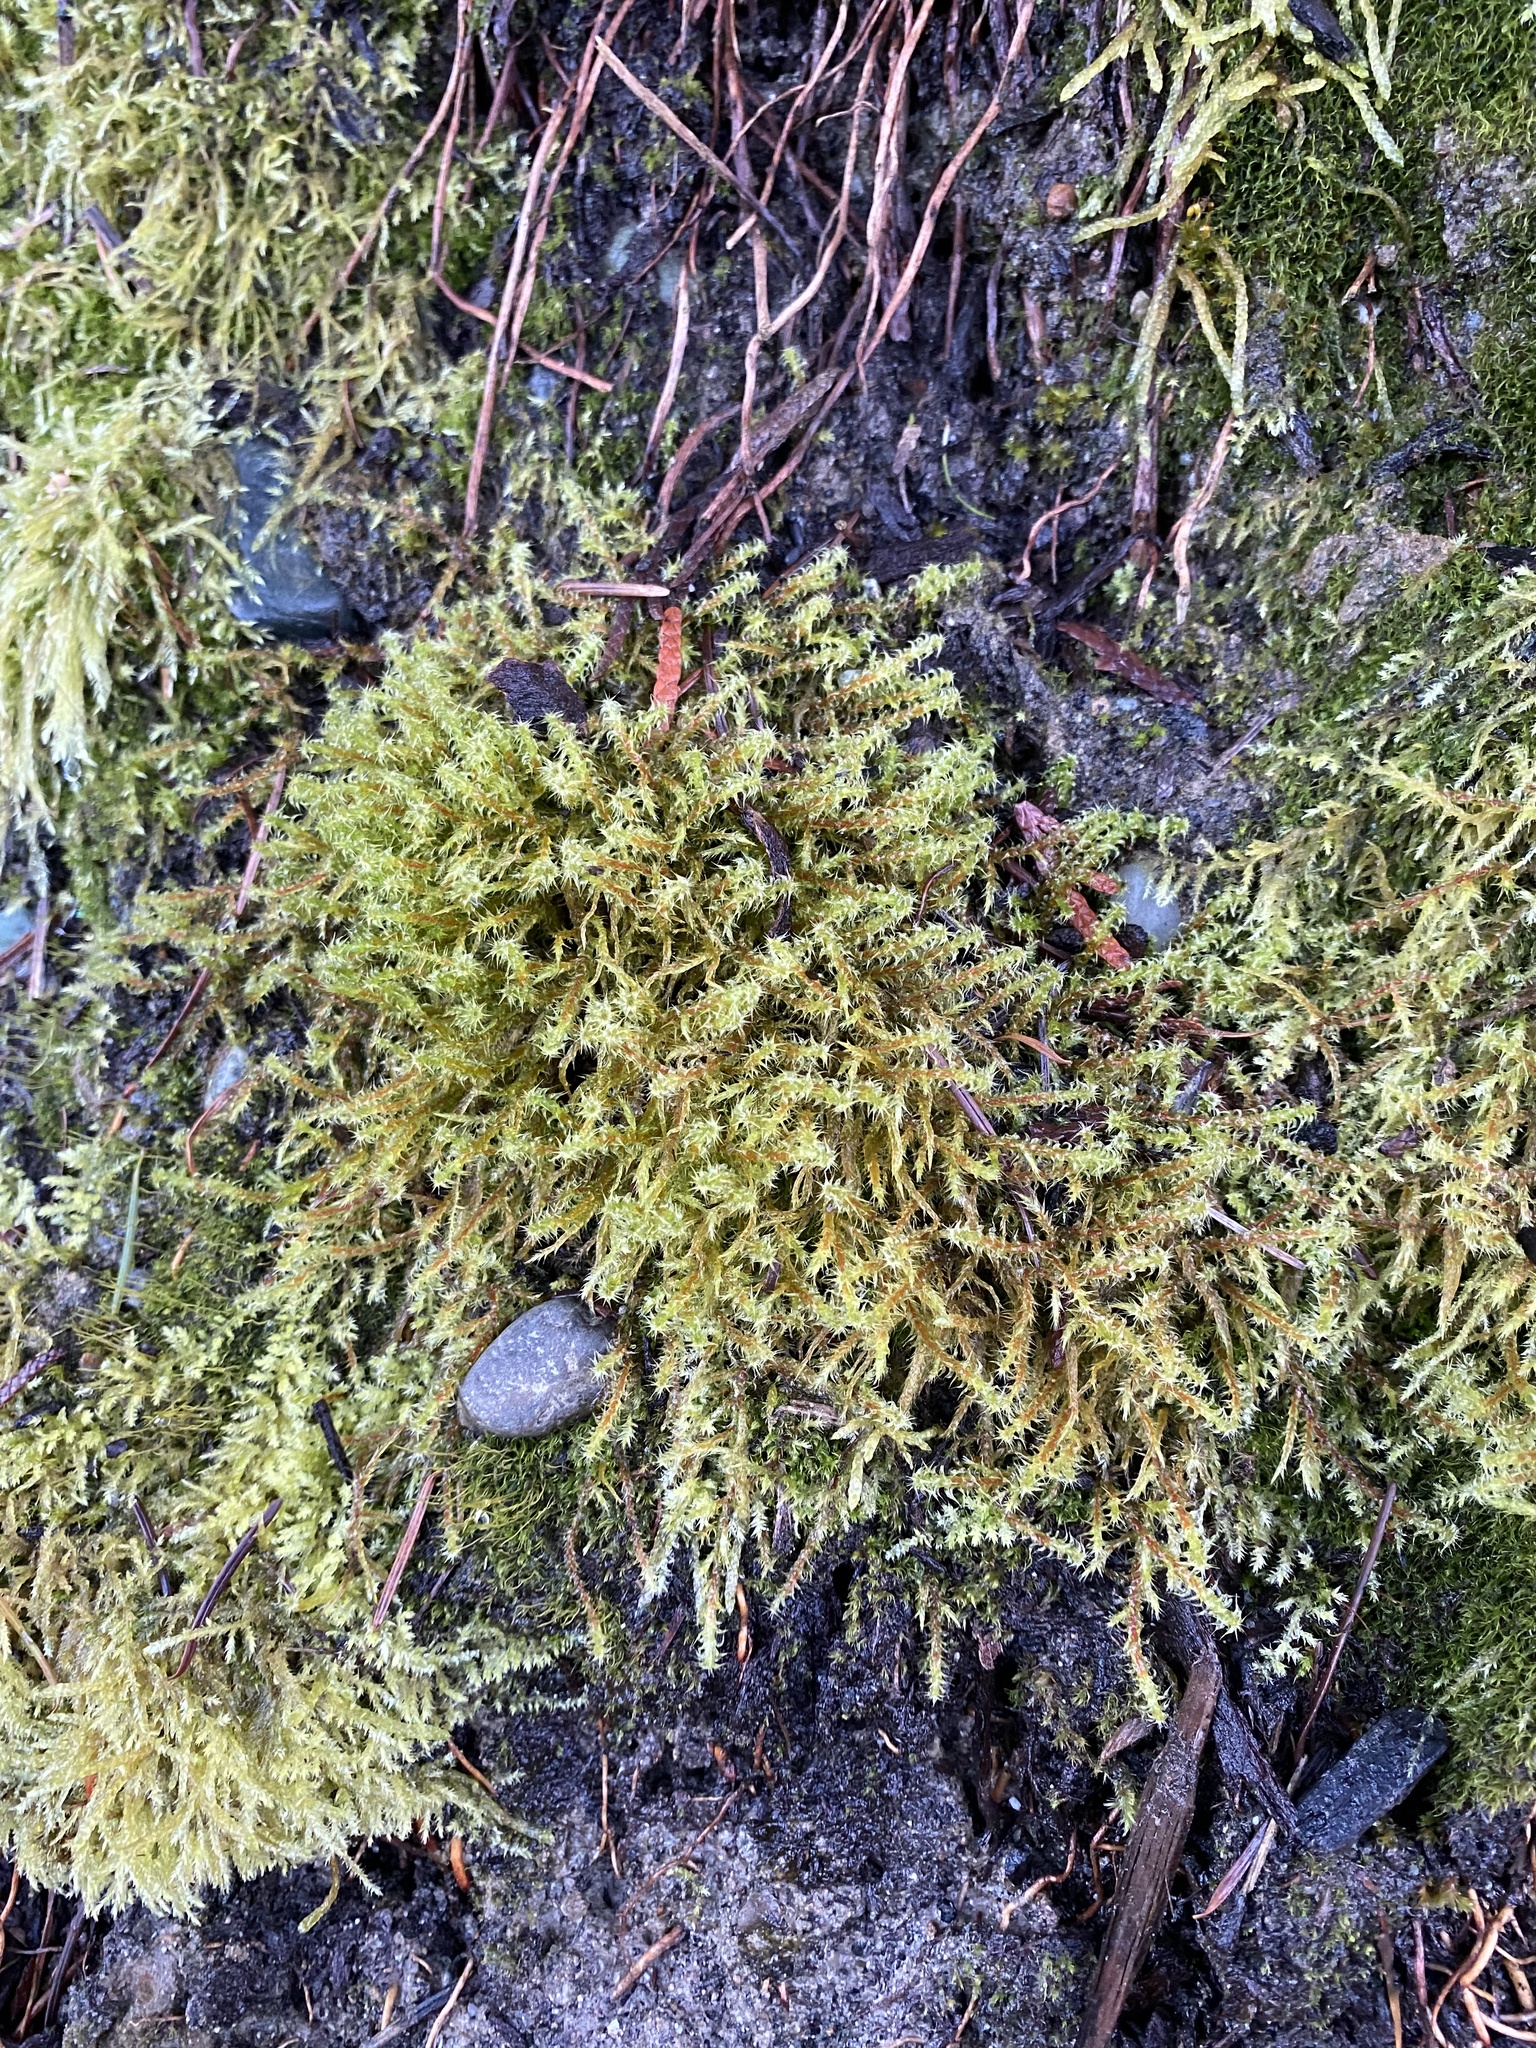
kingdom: Plantae
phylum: Bryophyta
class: Bryopsida
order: Hypnales
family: Hylocomiaceae
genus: Rhytidiadelphus
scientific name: Rhytidiadelphus squarrosus
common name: Springy turf-moss
